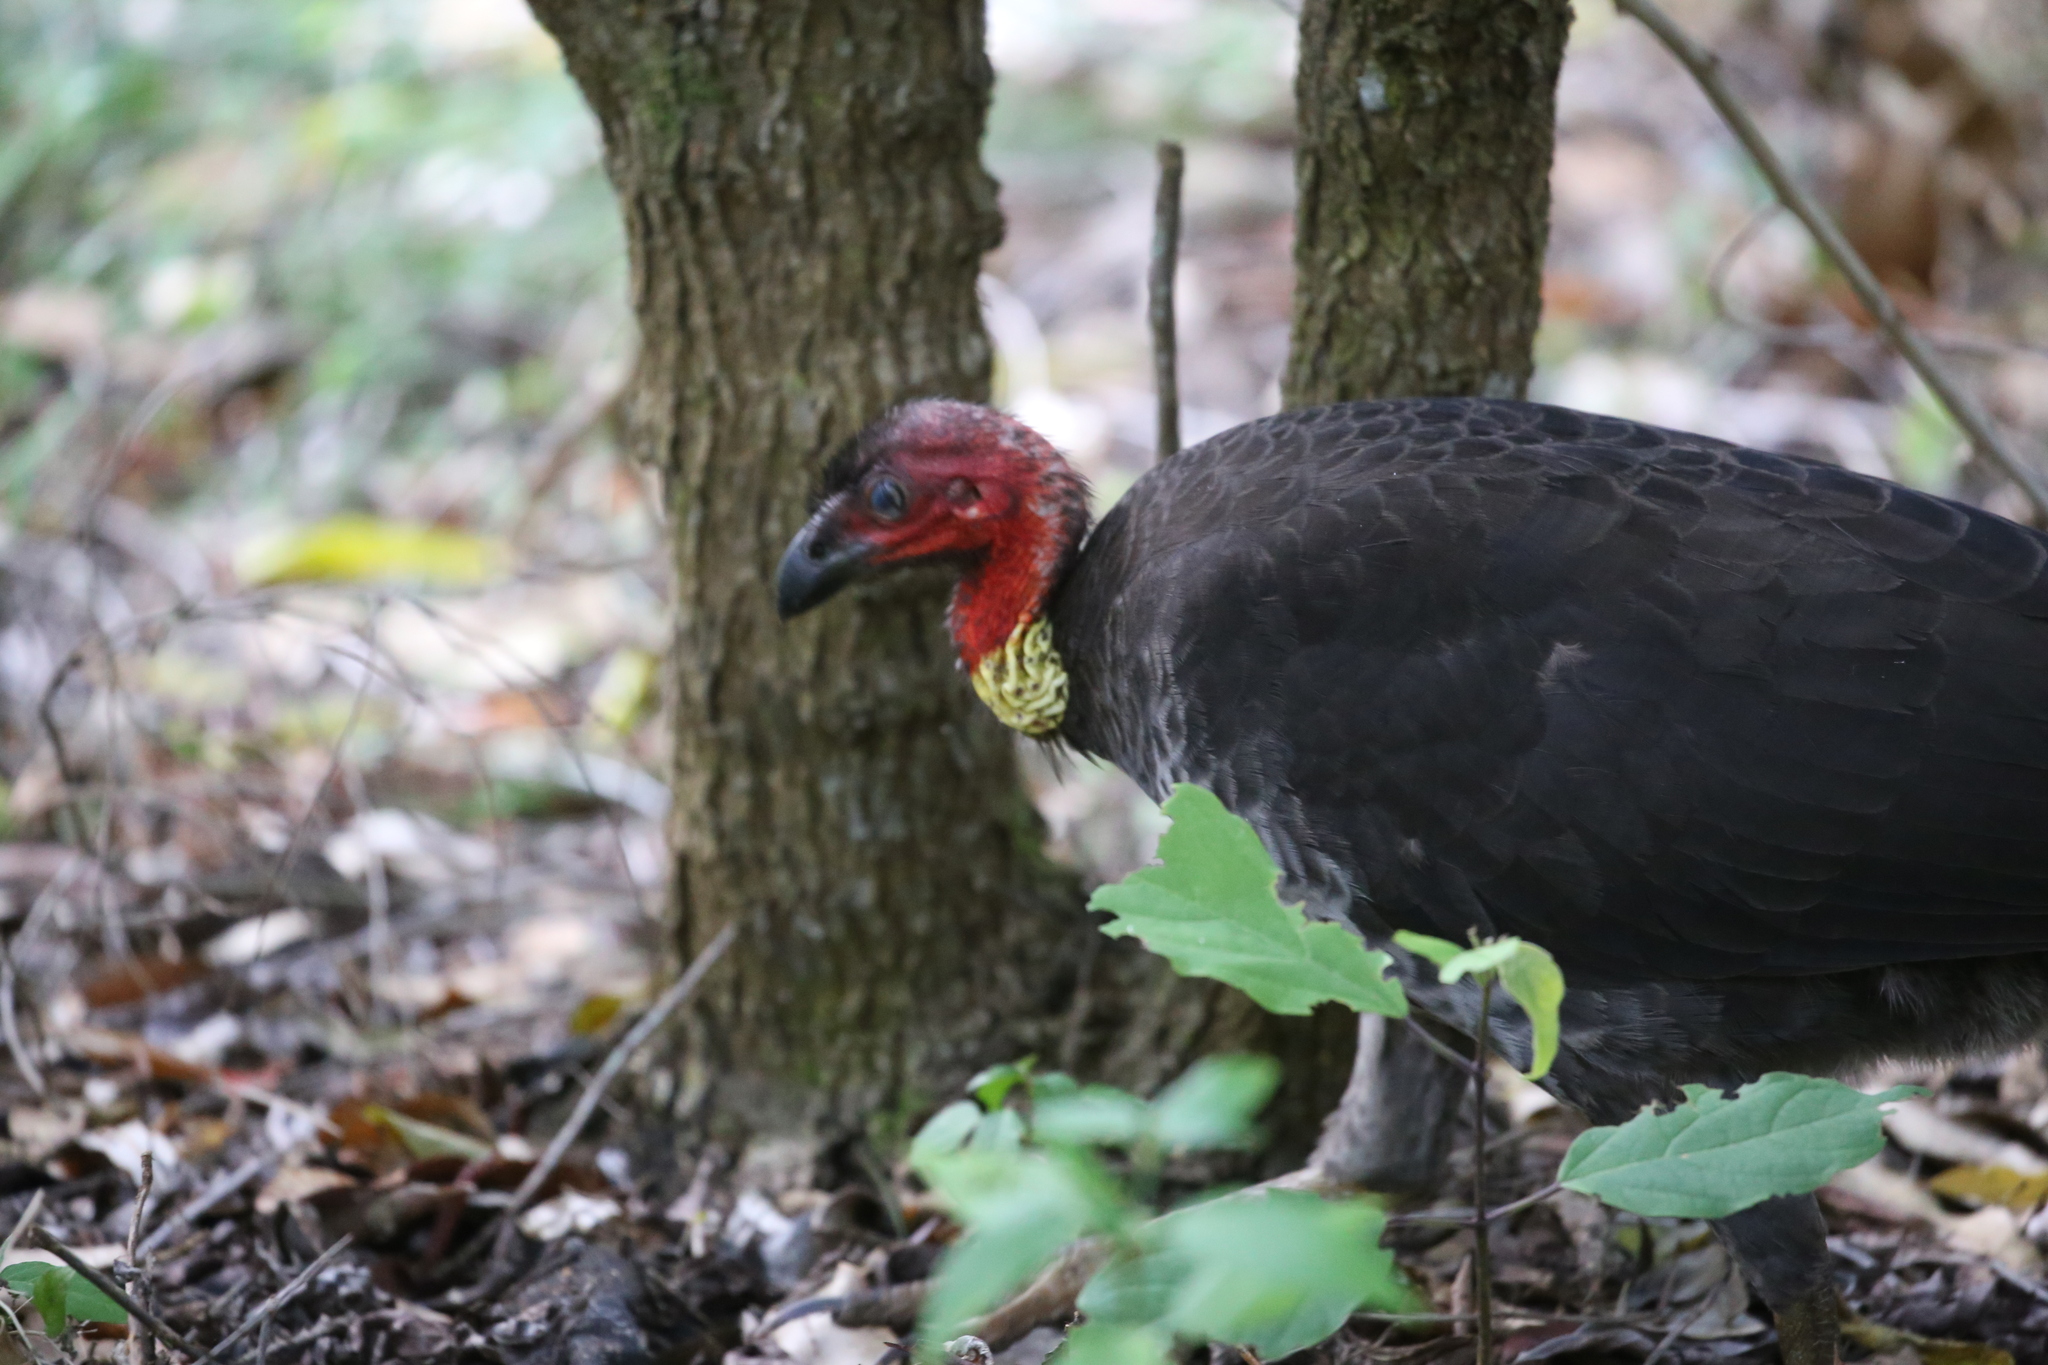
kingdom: Animalia
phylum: Chordata
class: Aves
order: Galliformes
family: Megapodiidae
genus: Alectura
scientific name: Alectura lathami
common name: Australian brushturkey
